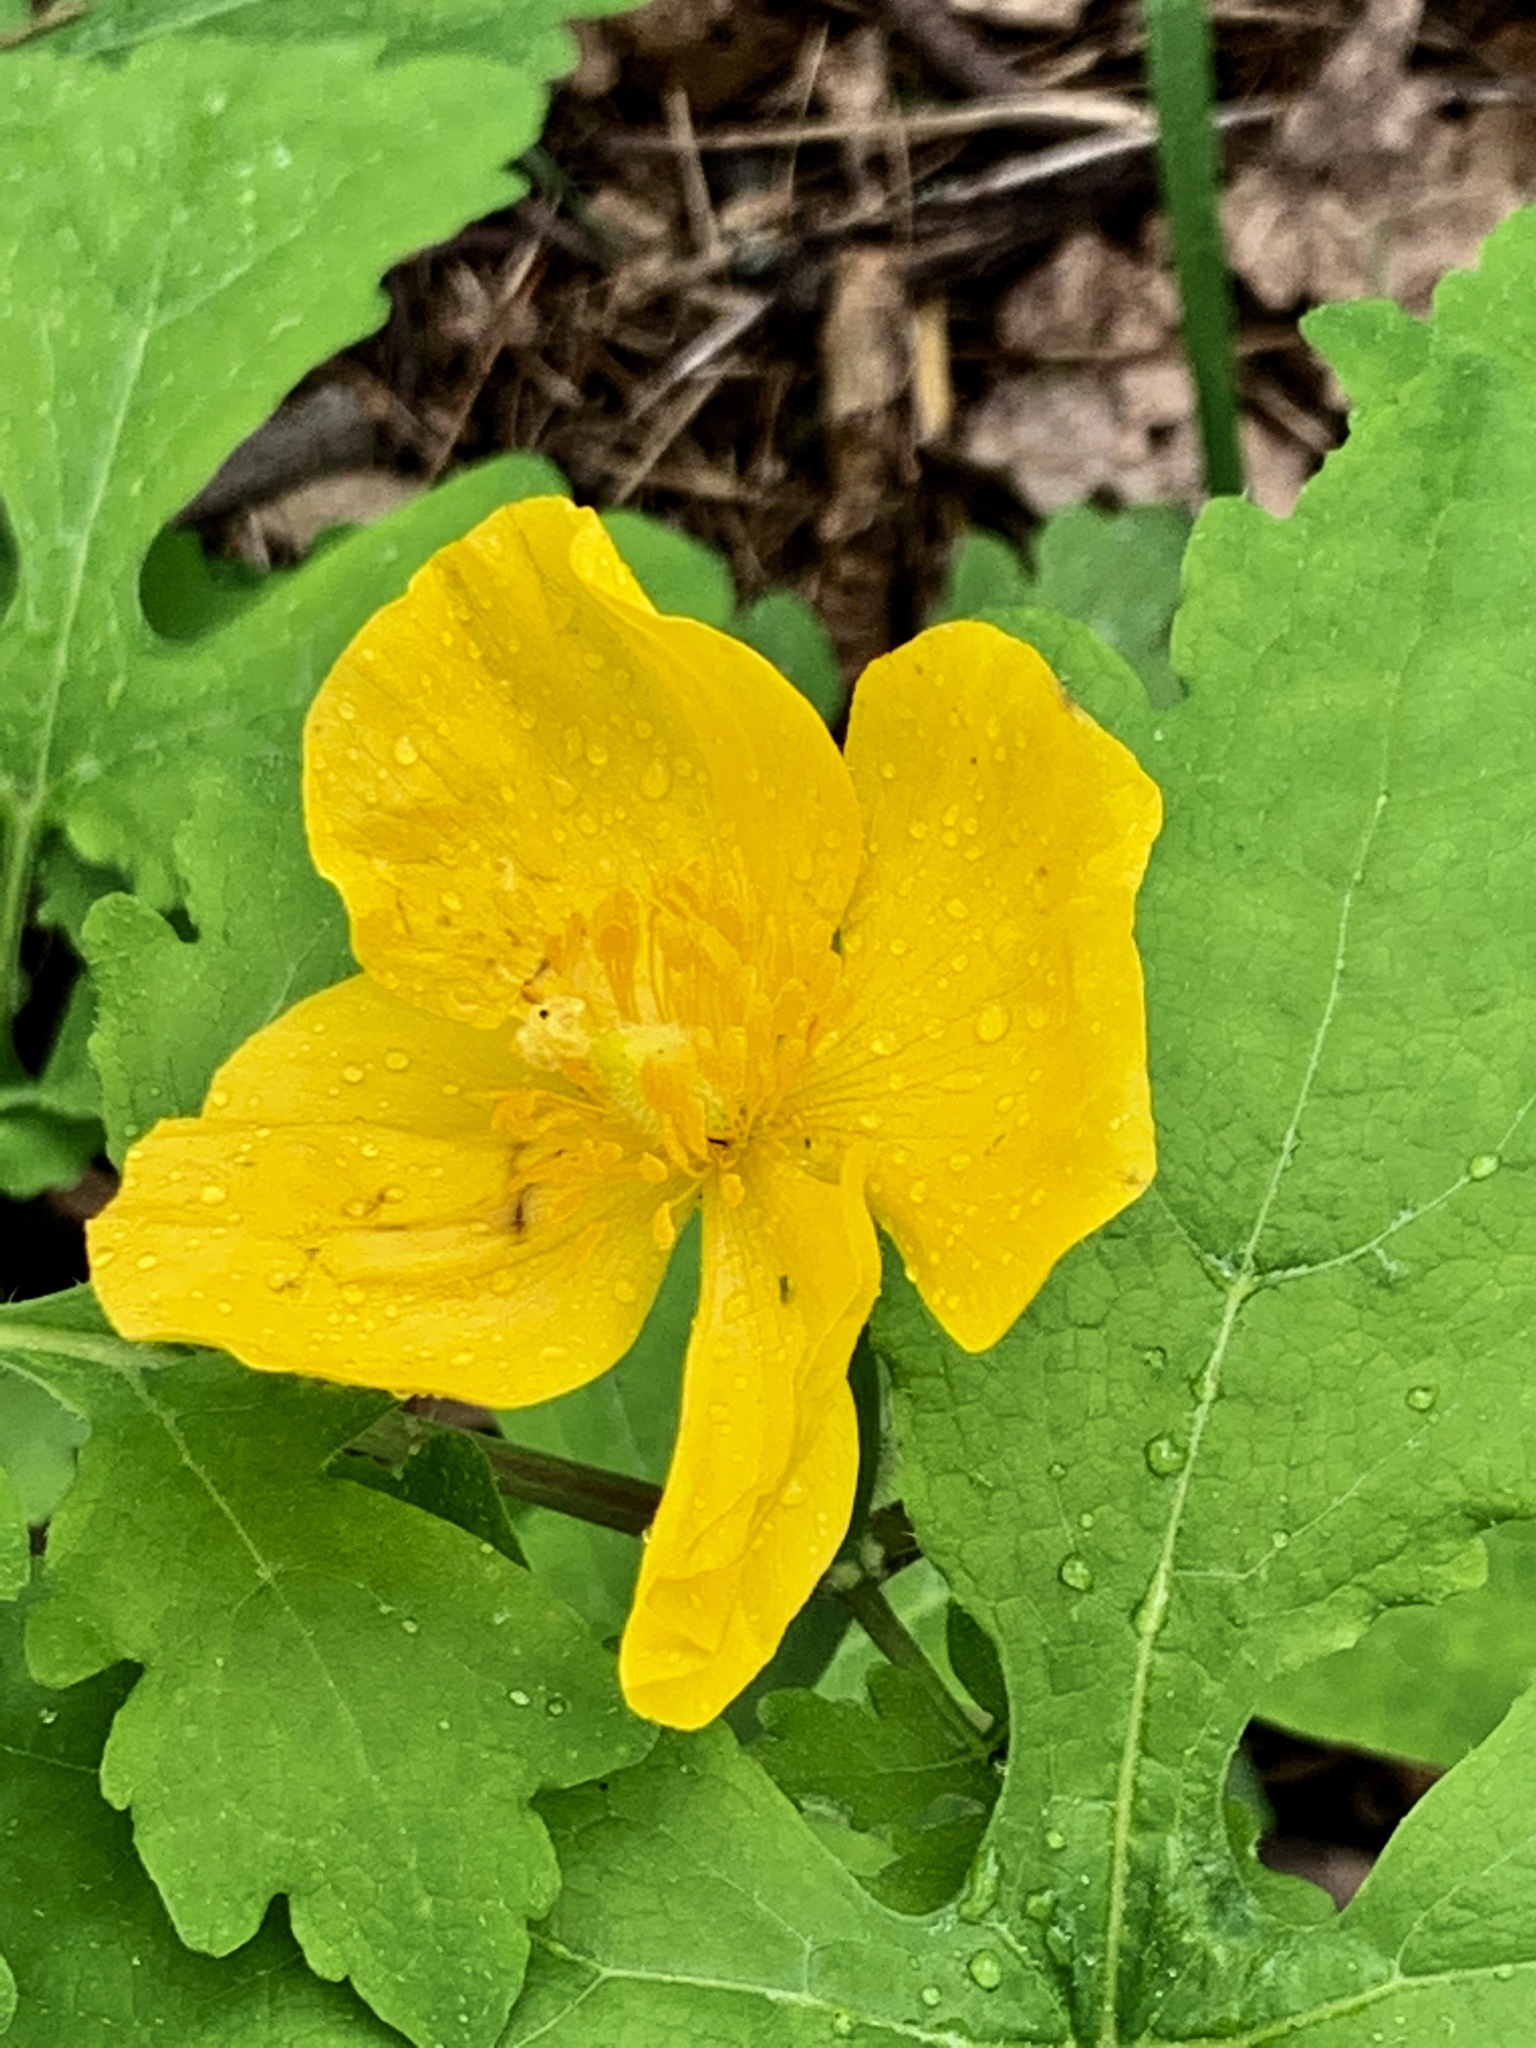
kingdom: Plantae
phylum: Tracheophyta
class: Magnoliopsida
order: Ranunculales
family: Papaveraceae
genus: Stylophorum
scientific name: Stylophorum diphyllum
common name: Celandine poppy
